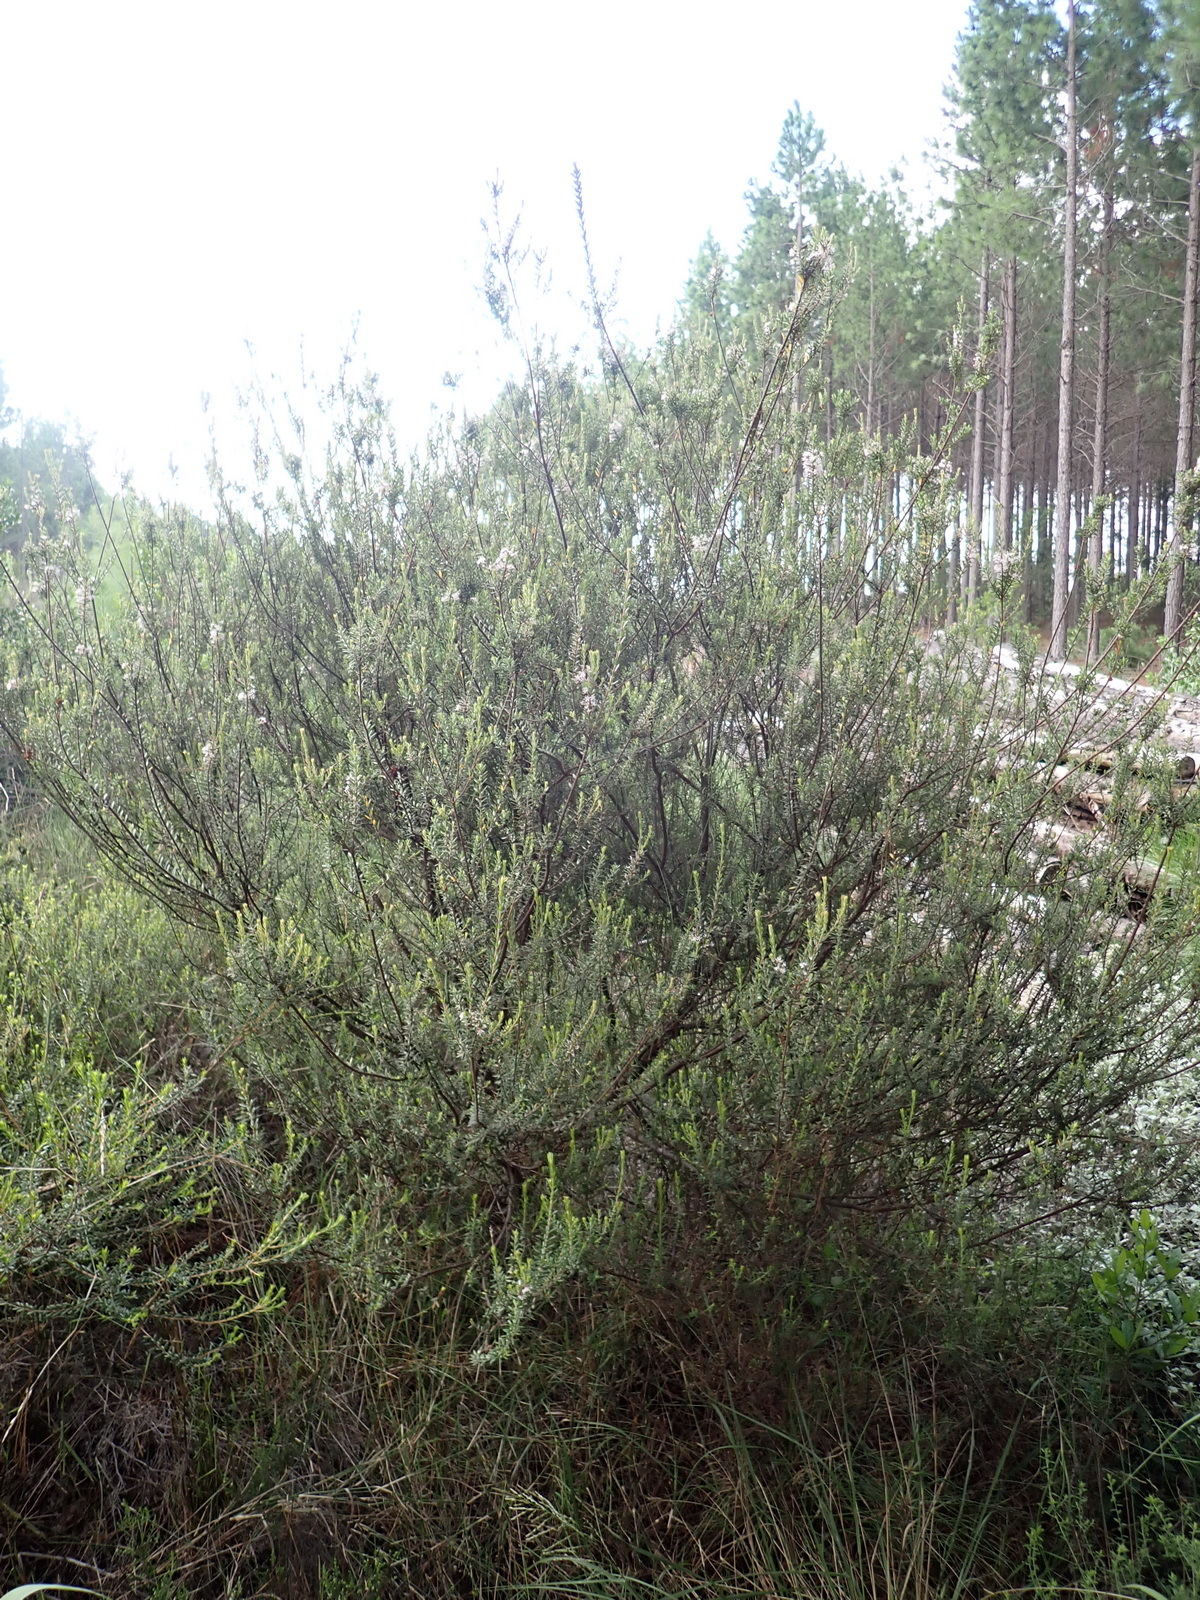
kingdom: Plantae
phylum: Tracheophyta
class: Magnoliopsida
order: Sapindales
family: Rutaceae
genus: Agathosma
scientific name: Agathosma ovata
